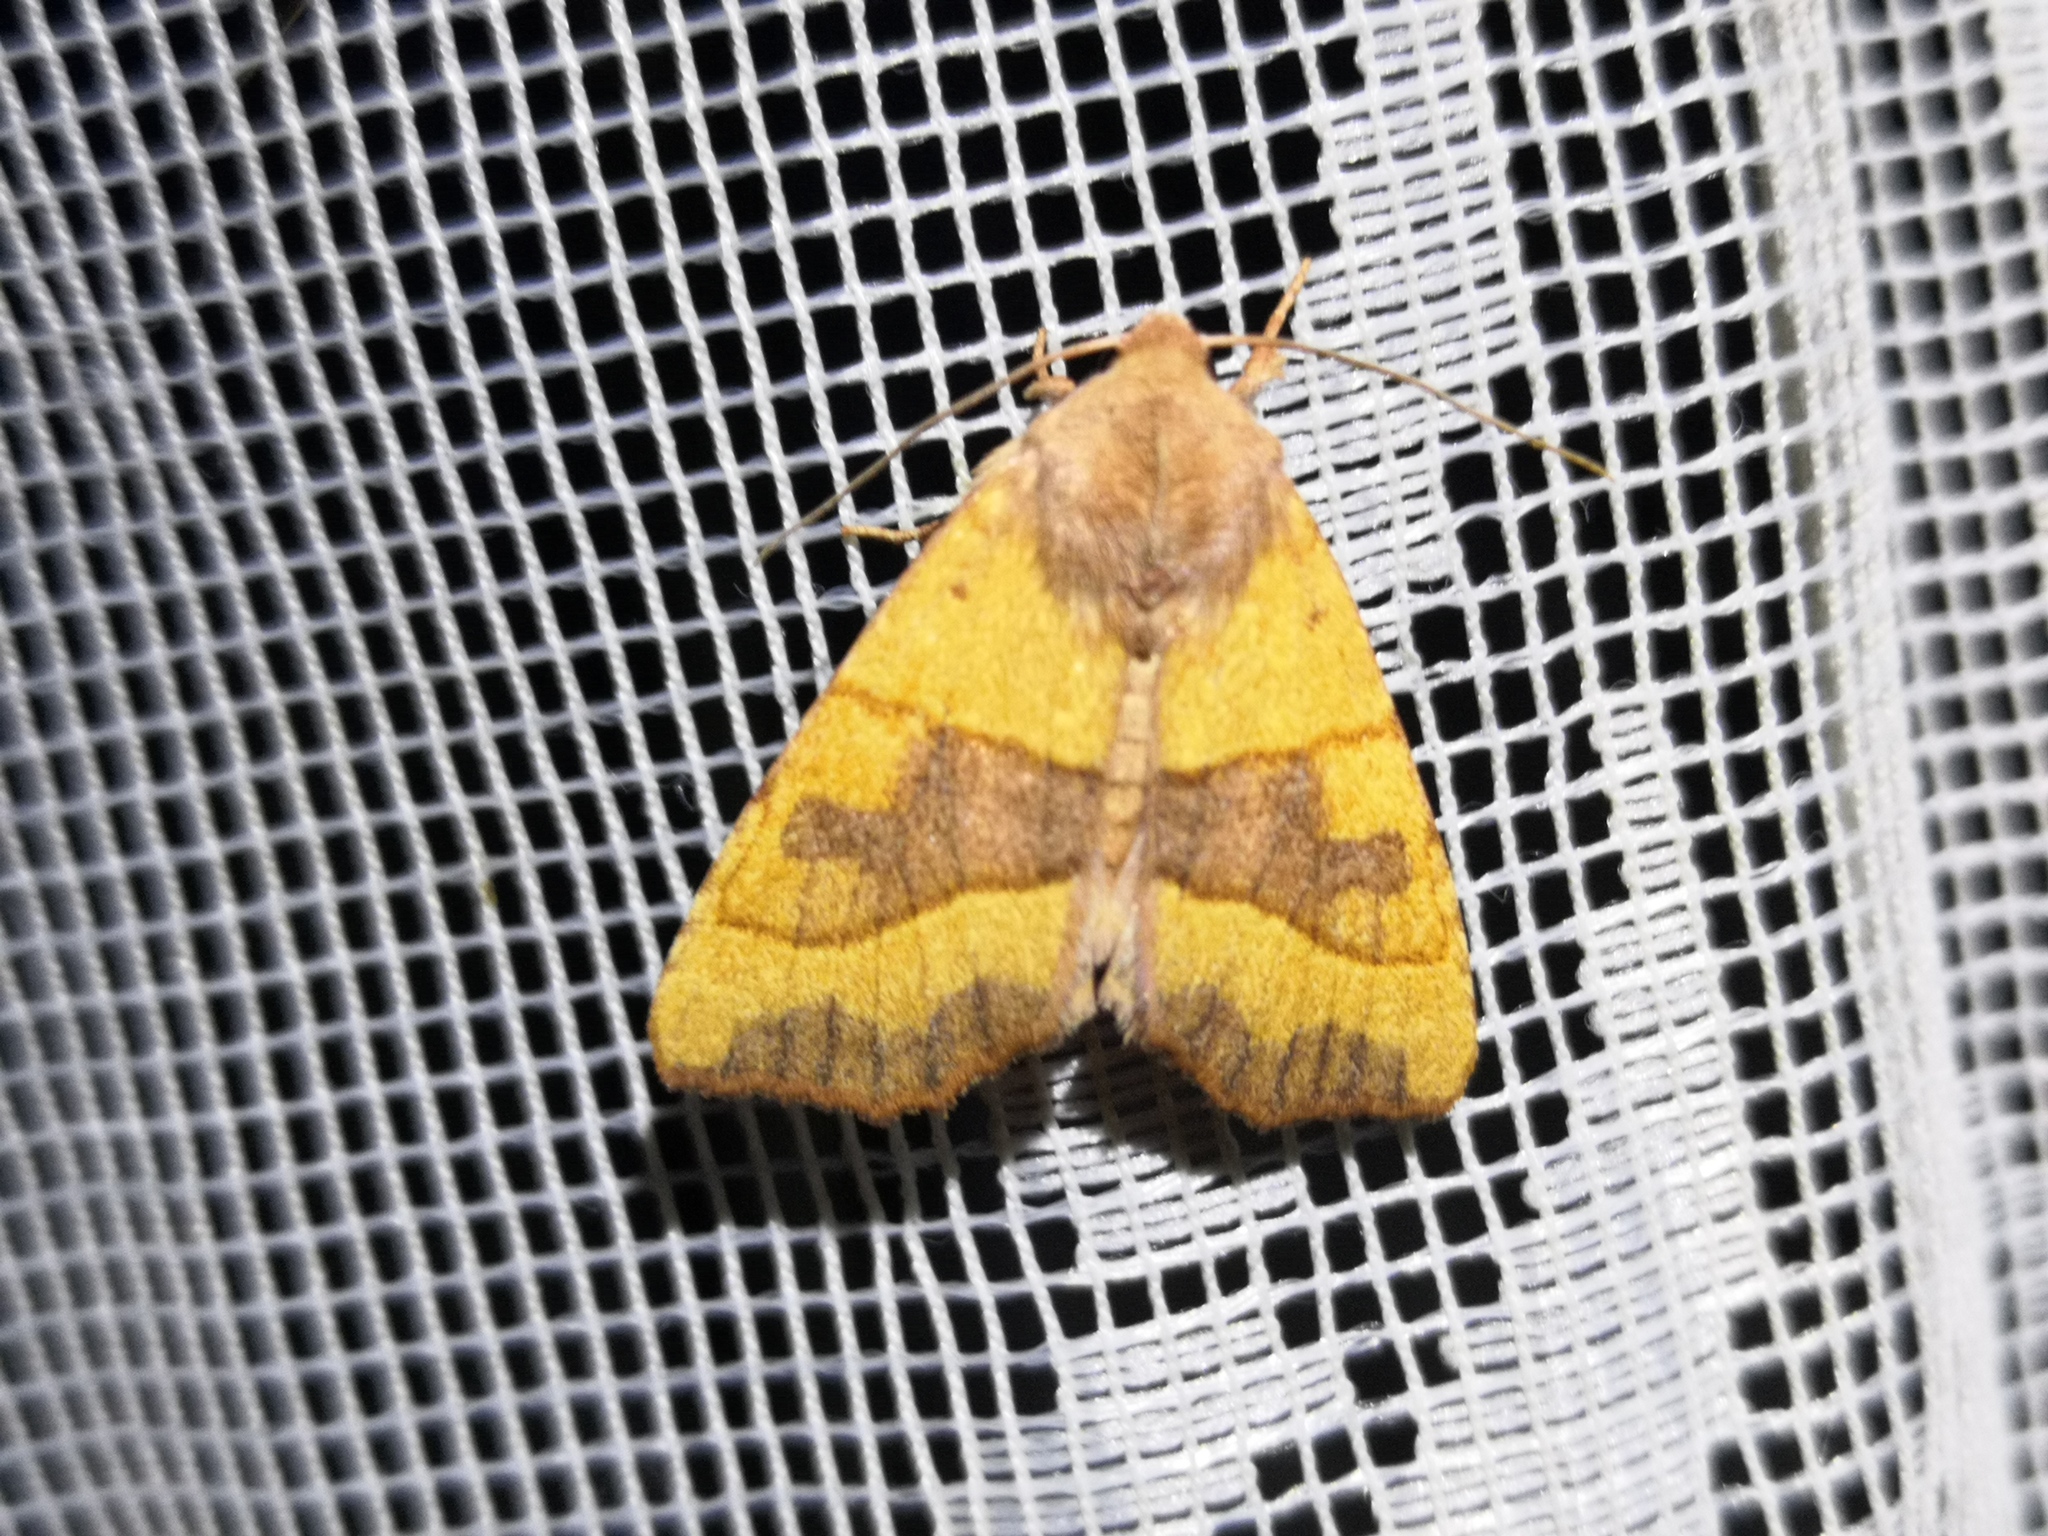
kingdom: Animalia
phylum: Arthropoda
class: Insecta
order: Lepidoptera
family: Noctuidae
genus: Atethmia
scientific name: Atethmia centrago
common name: Centre-barred sallow
